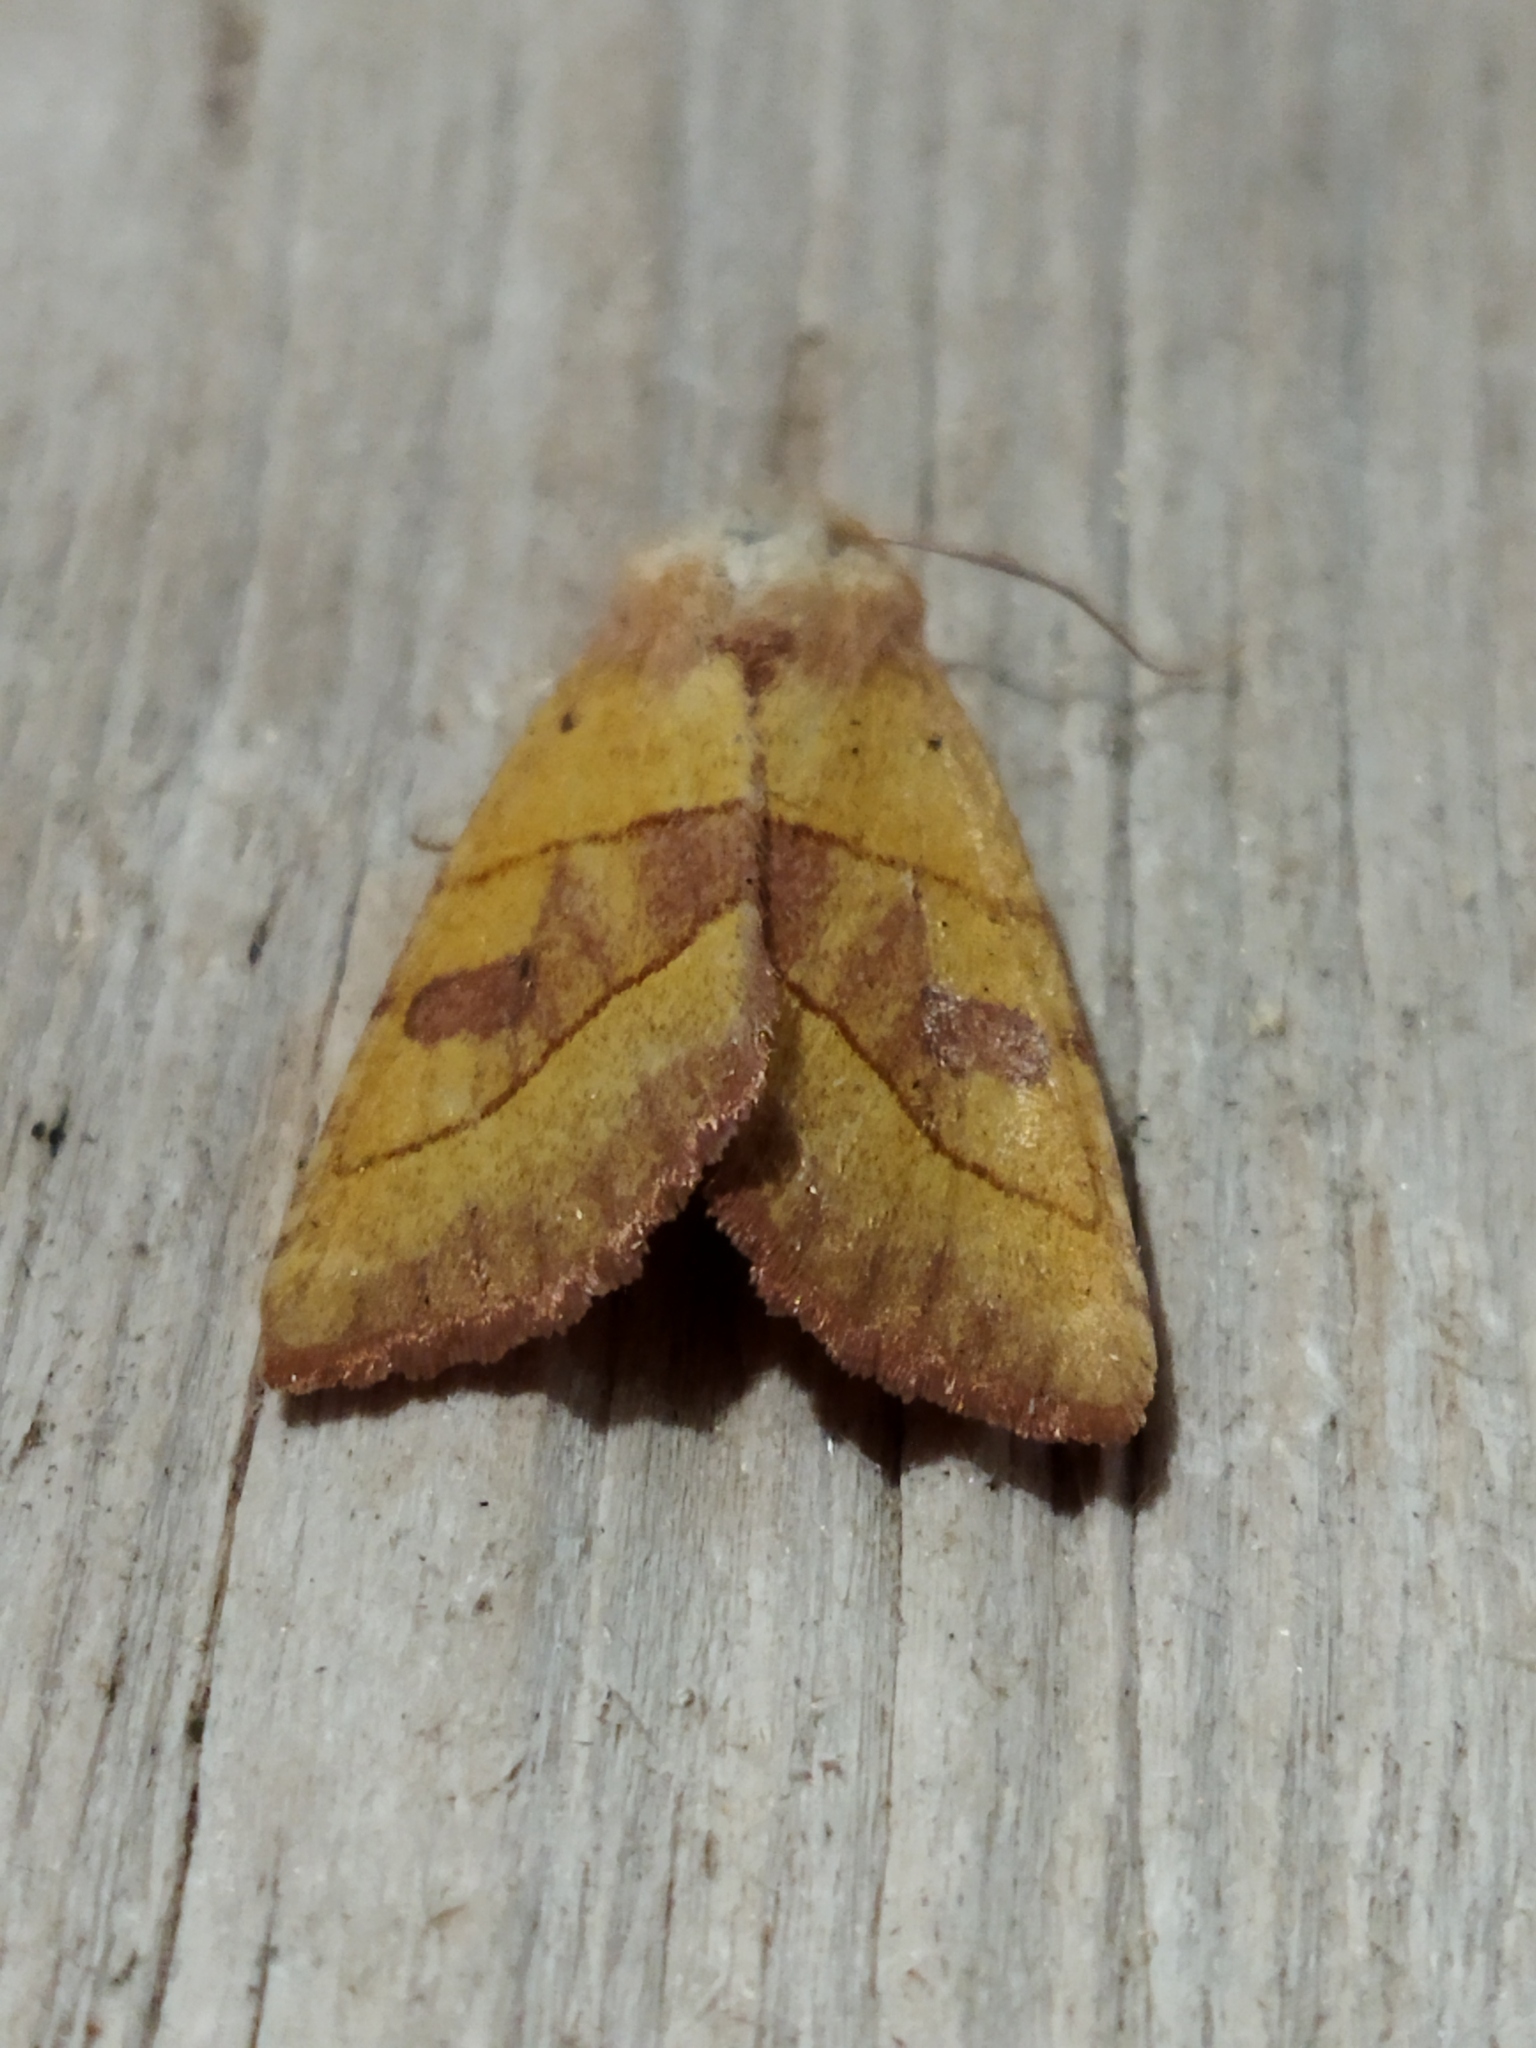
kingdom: Animalia
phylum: Arthropoda
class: Insecta
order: Lepidoptera
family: Noctuidae
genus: Atethmia
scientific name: Atethmia centrago
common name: Centre-barred sallow
